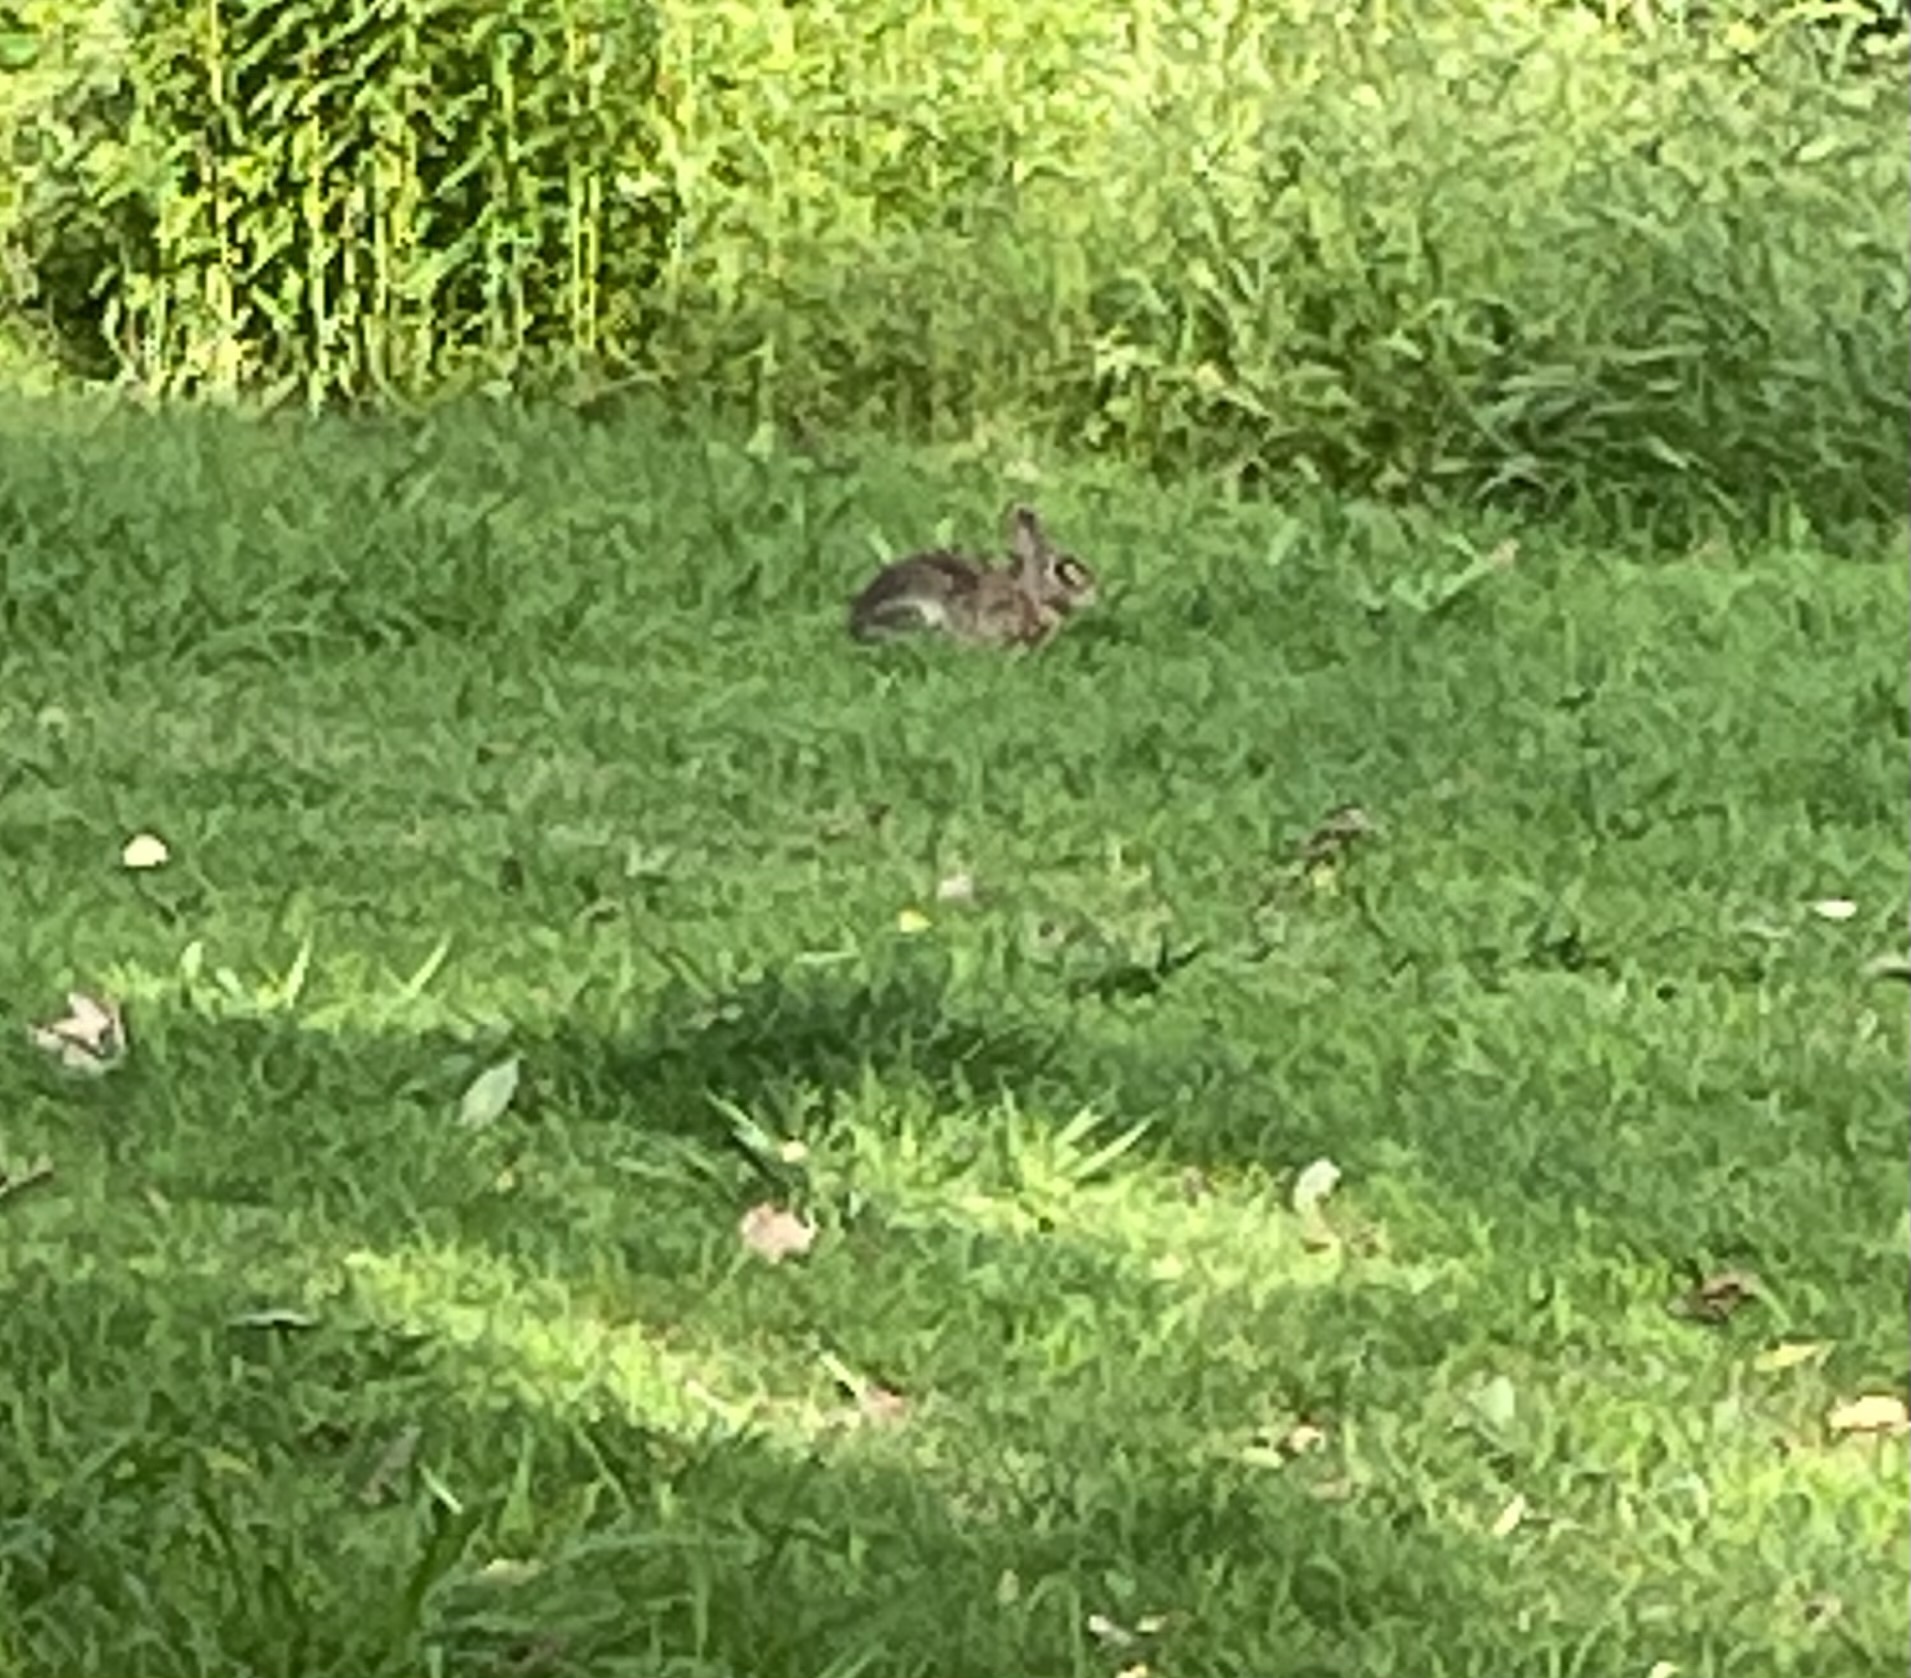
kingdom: Animalia
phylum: Chordata
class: Mammalia
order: Lagomorpha
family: Leporidae
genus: Sylvilagus
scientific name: Sylvilagus floridanus
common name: Eastern cottontail
